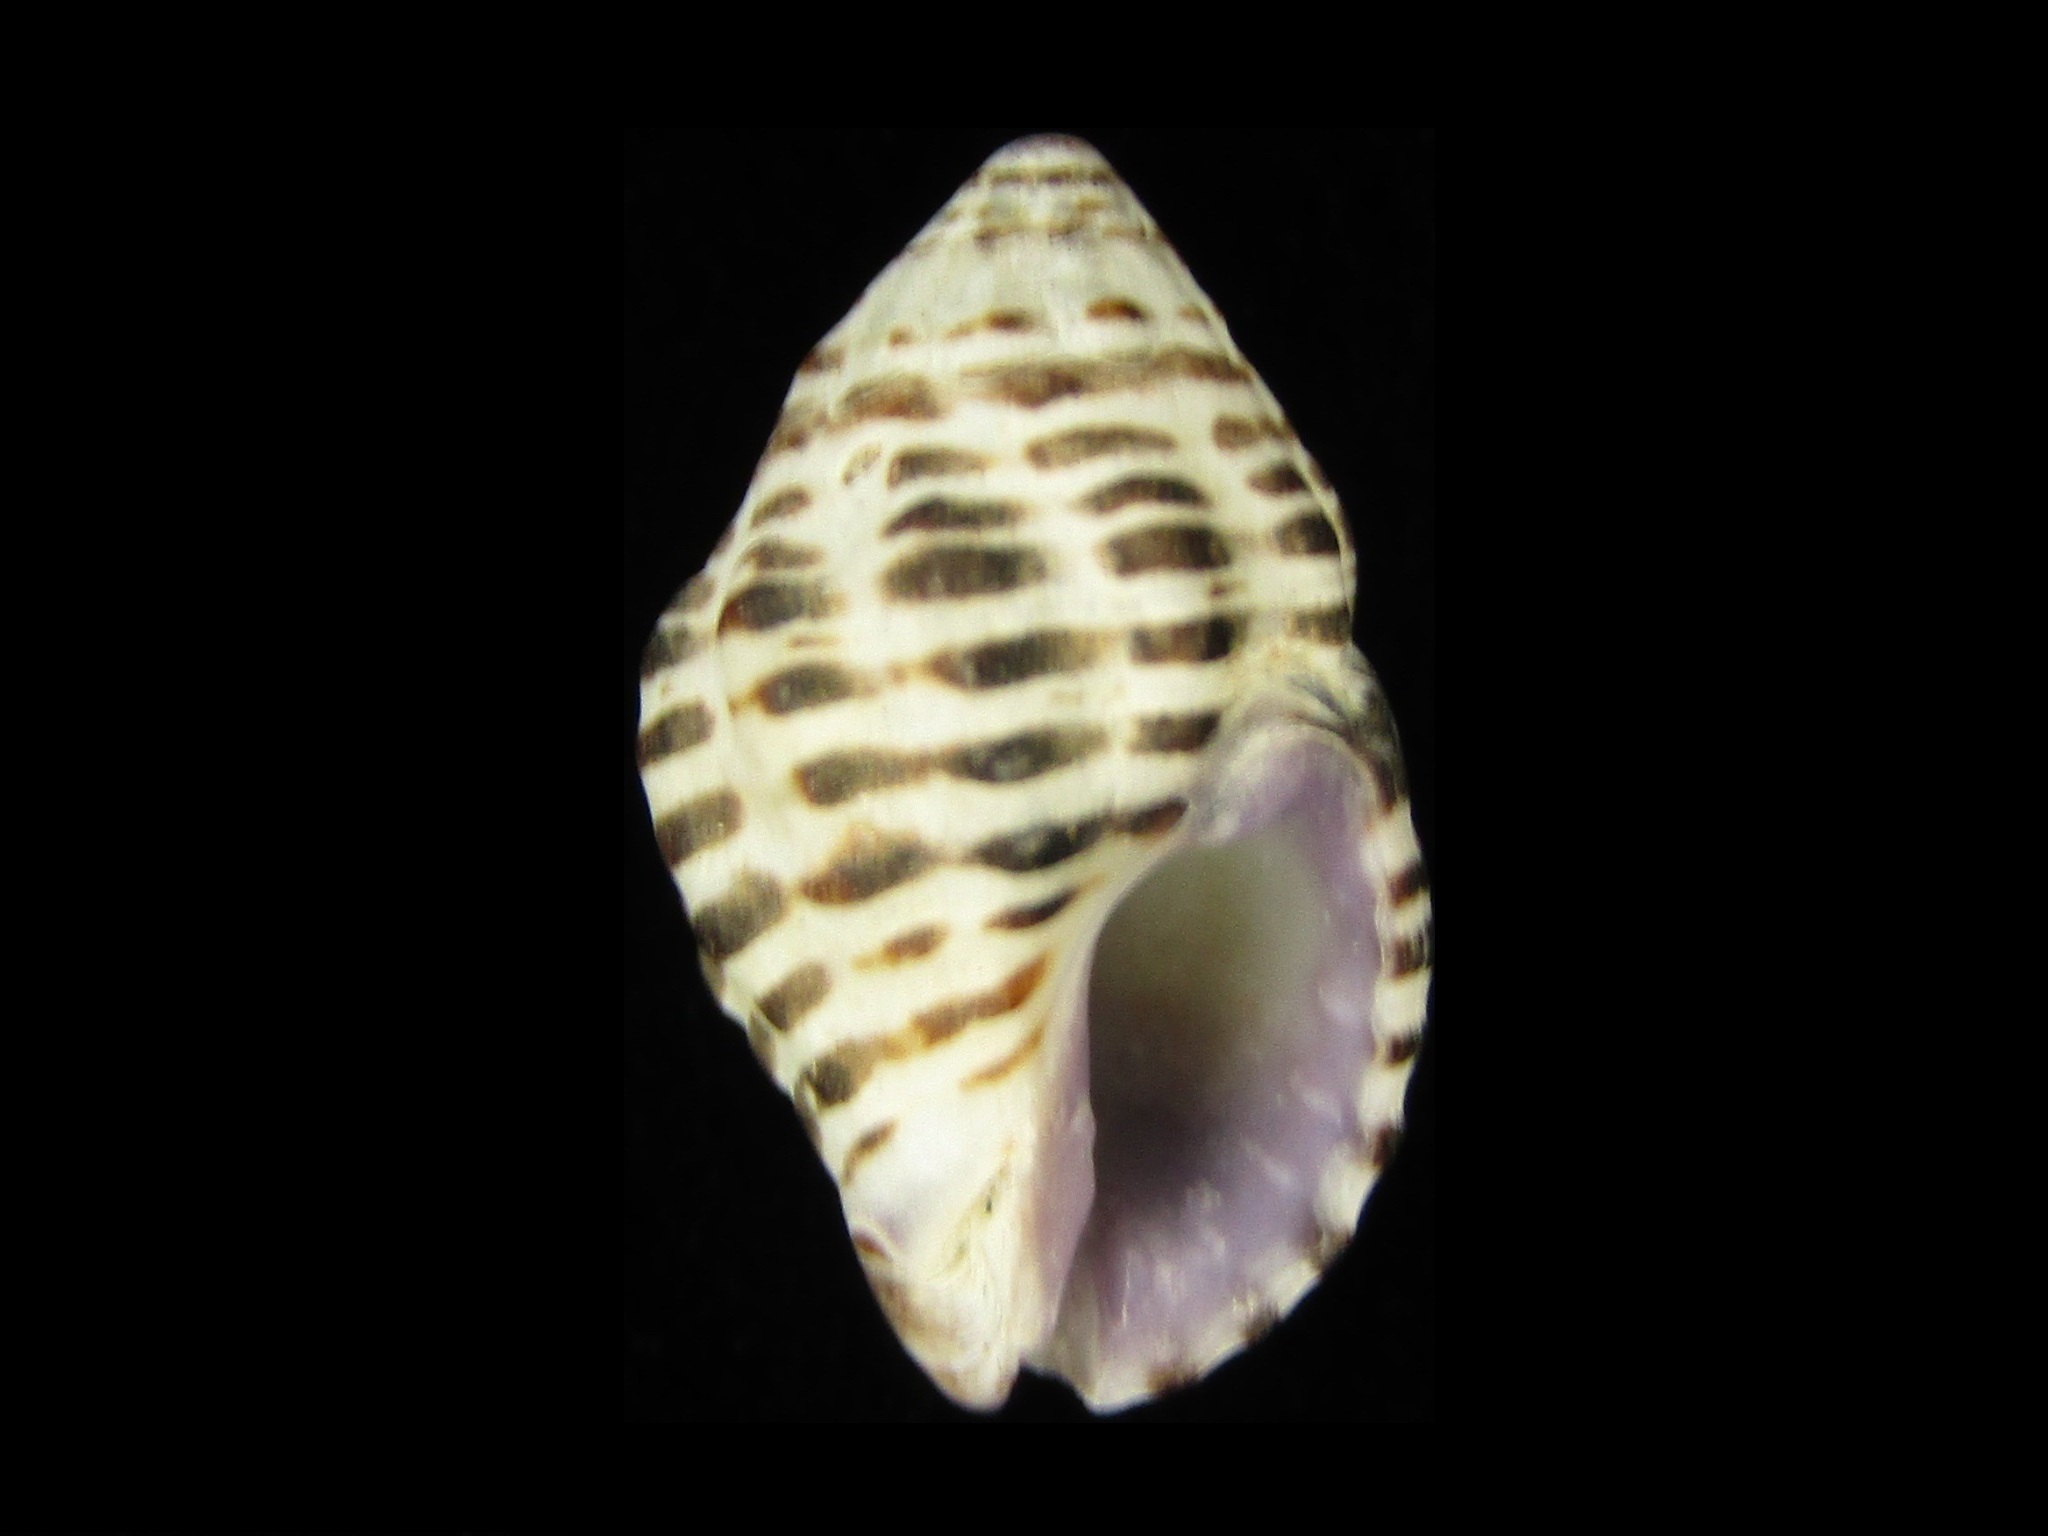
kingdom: Animalia
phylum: Mollusca
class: Gastropoda
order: Neogastropoda
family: Muricidae
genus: Morula
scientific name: Morula iostoma
